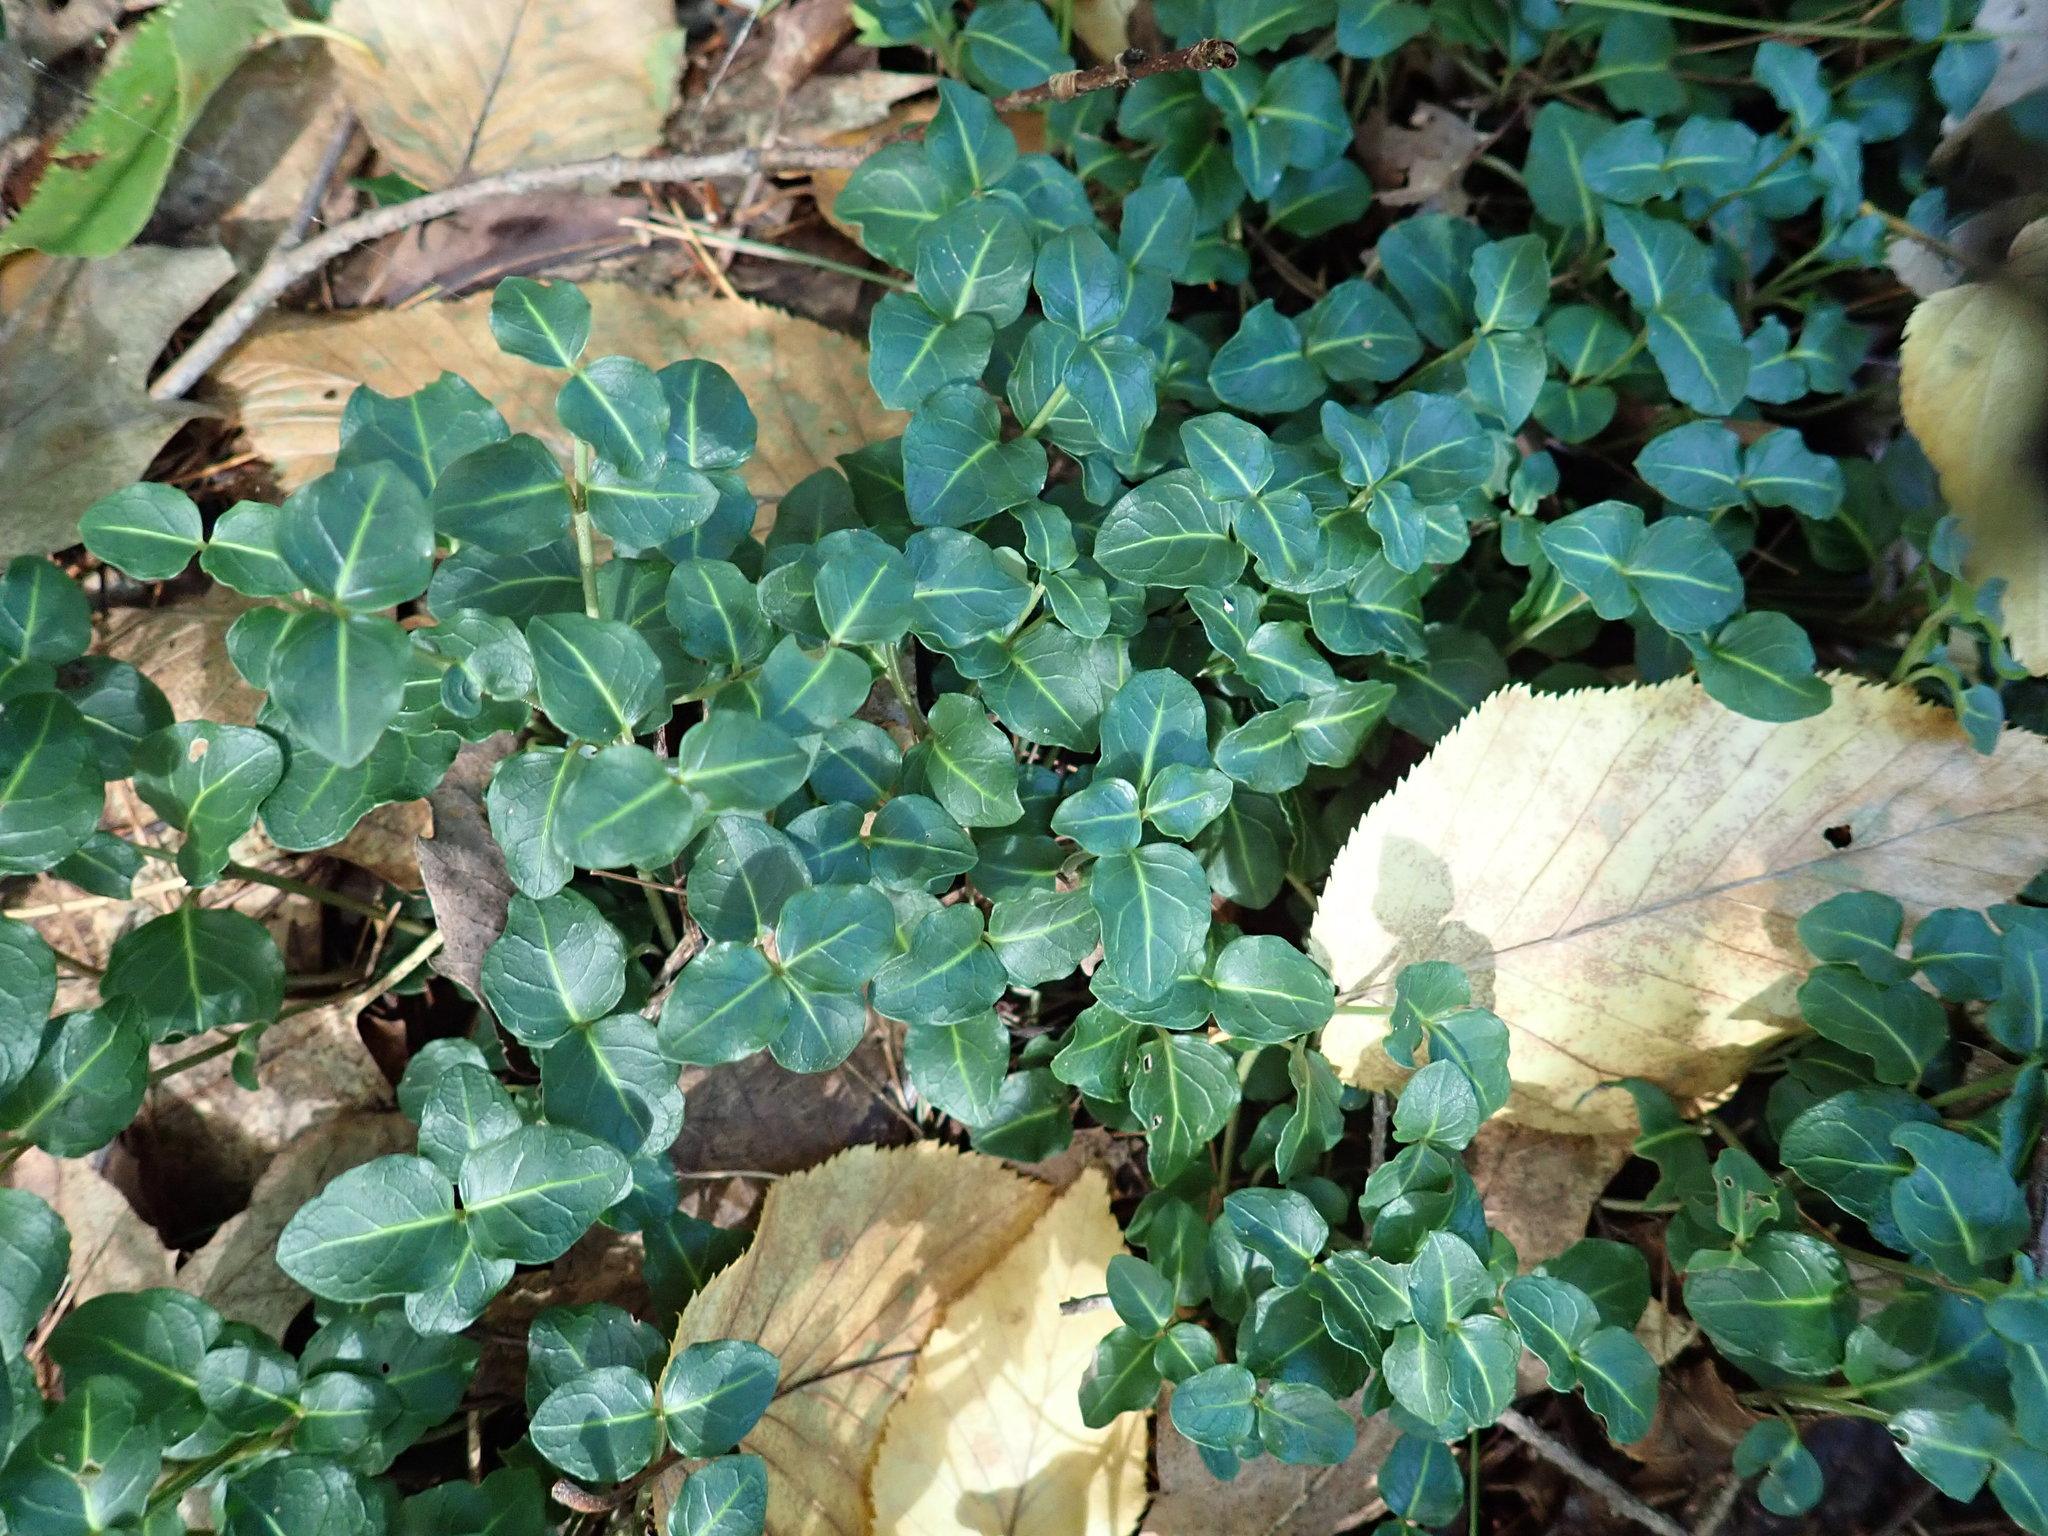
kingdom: Plantae
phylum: Tracheophyta
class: Magnoliopsida
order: Gentianales
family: Rubiaceae
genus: Mitchella
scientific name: Mitchella repens
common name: Partridge-berry
